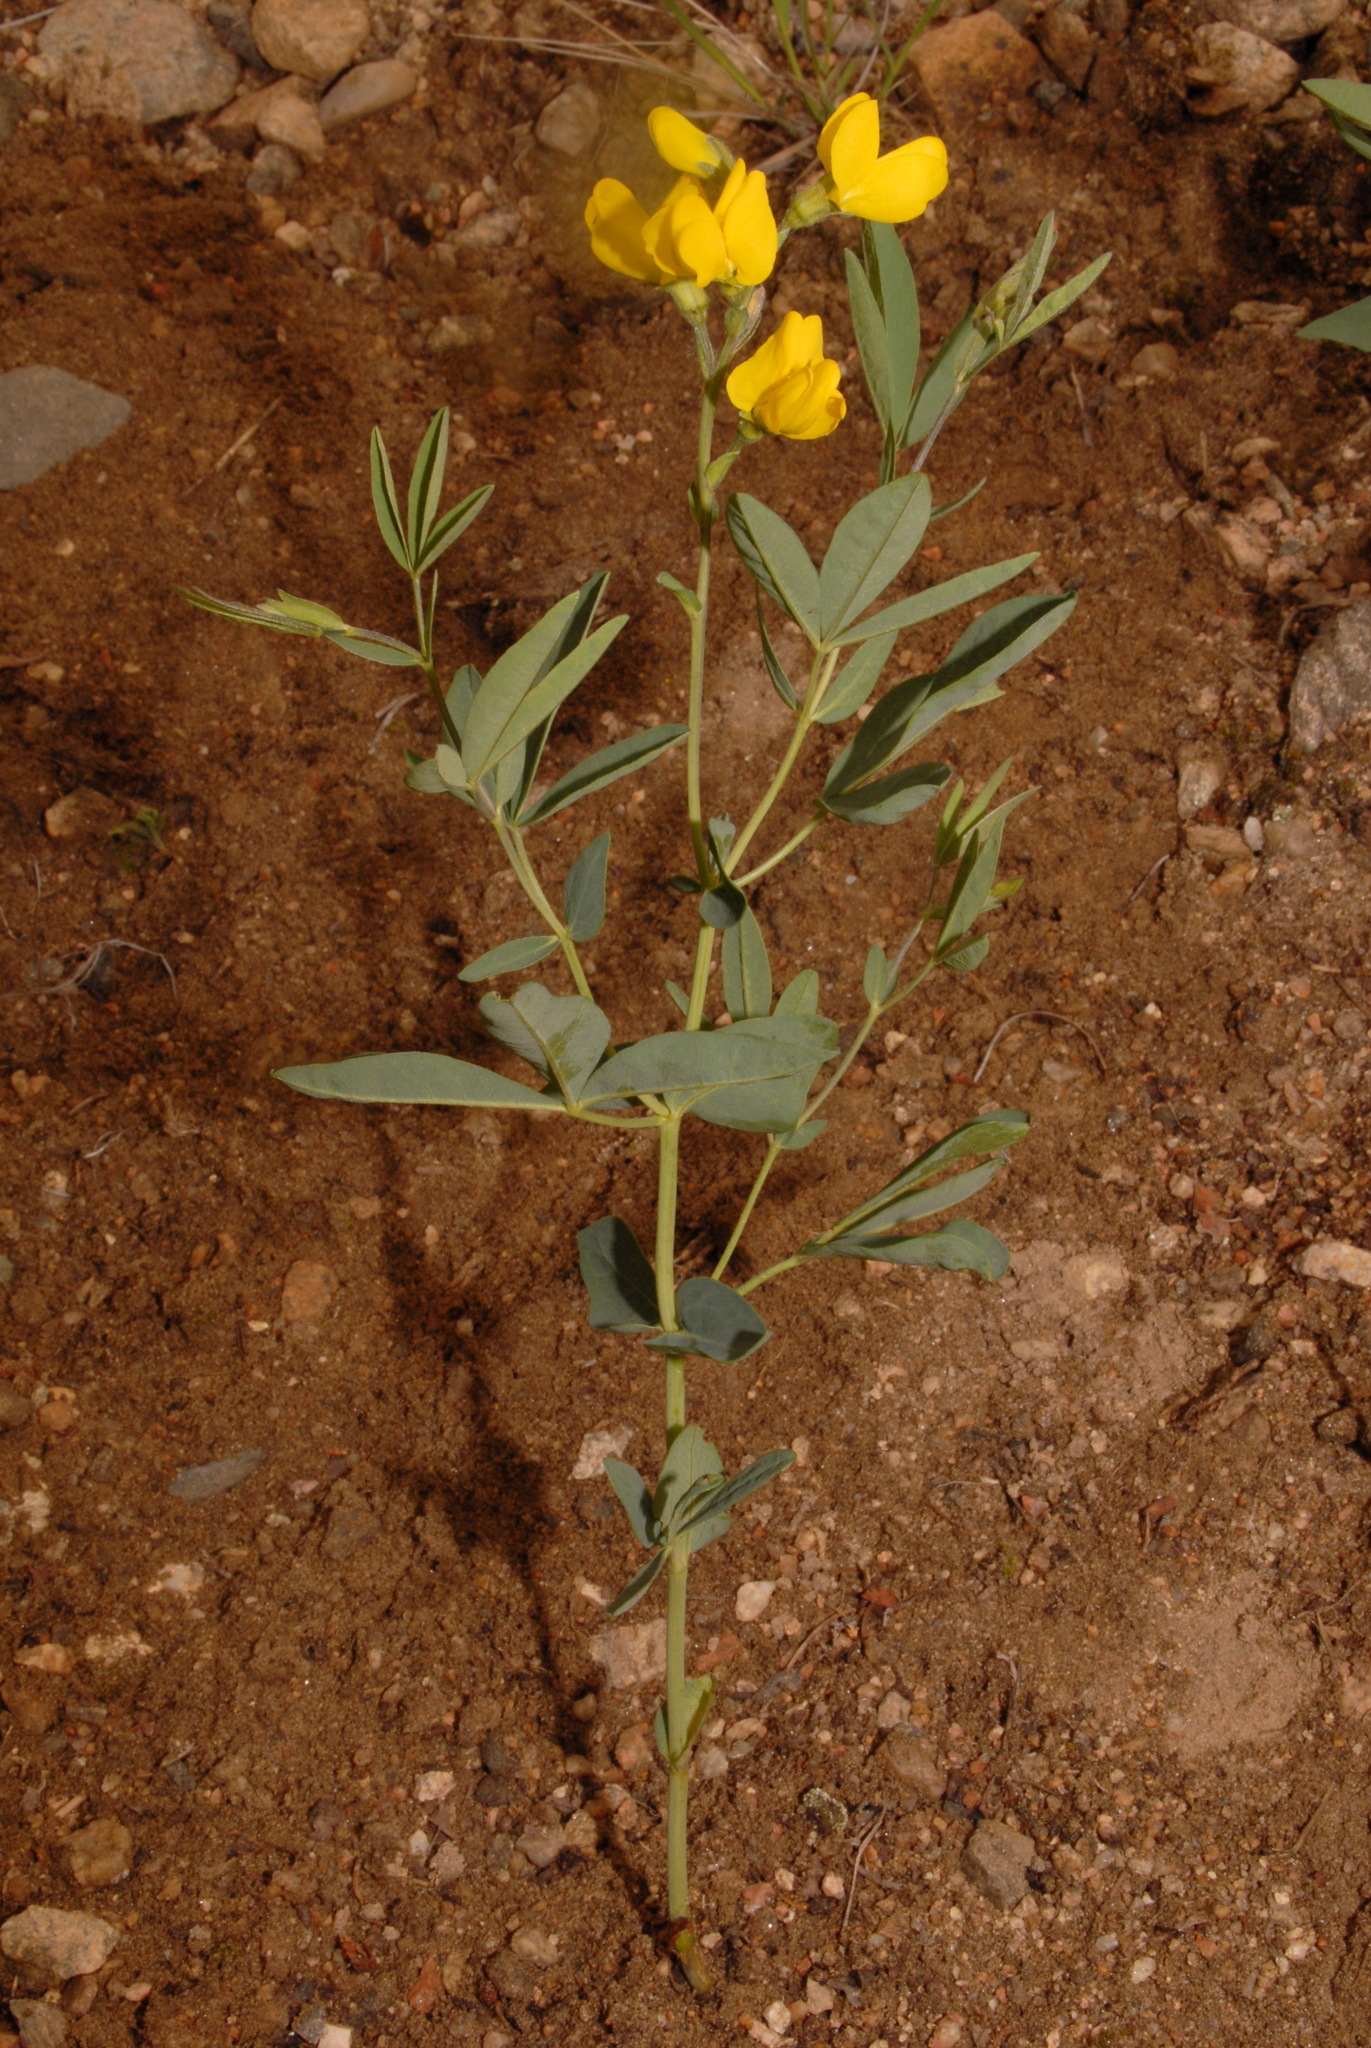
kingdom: Plantae
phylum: Tracheophyta
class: Magnoliopsida
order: Fabales
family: Fabaceae
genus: Thermopsis
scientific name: Thermopsis rhombifolia
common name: Circle-pod-pea
